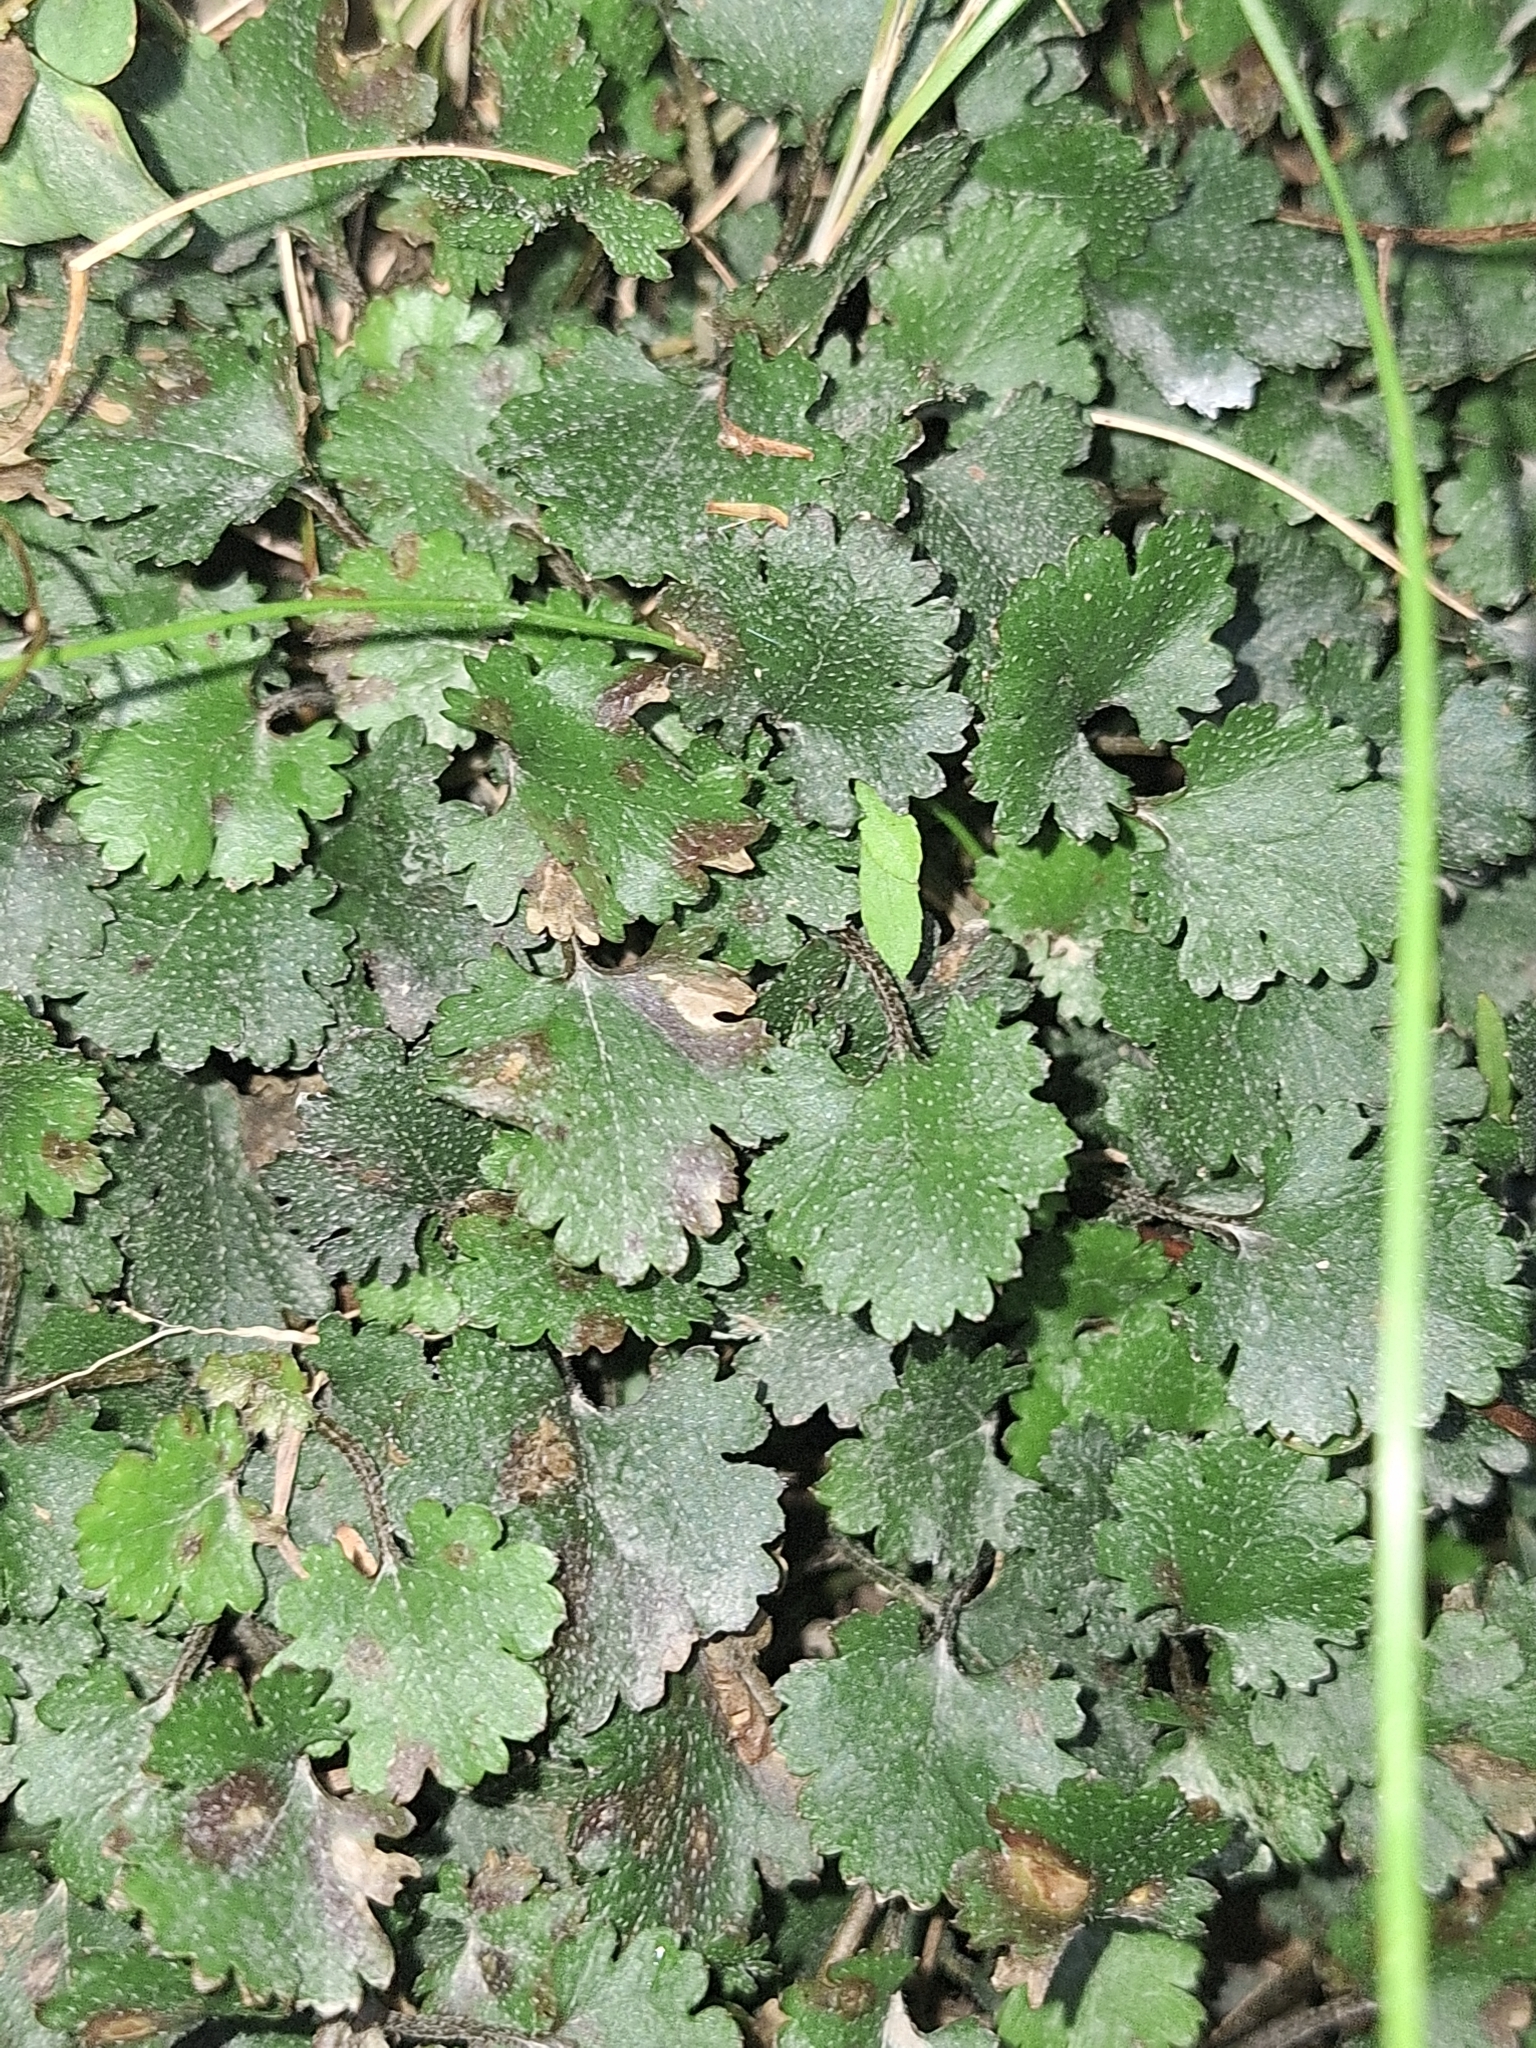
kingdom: Plantae
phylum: Tracheophyta
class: Magnoliopsida
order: Gunnerales
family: Gunneraceae
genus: Gunnera
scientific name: Gunnera monoica
